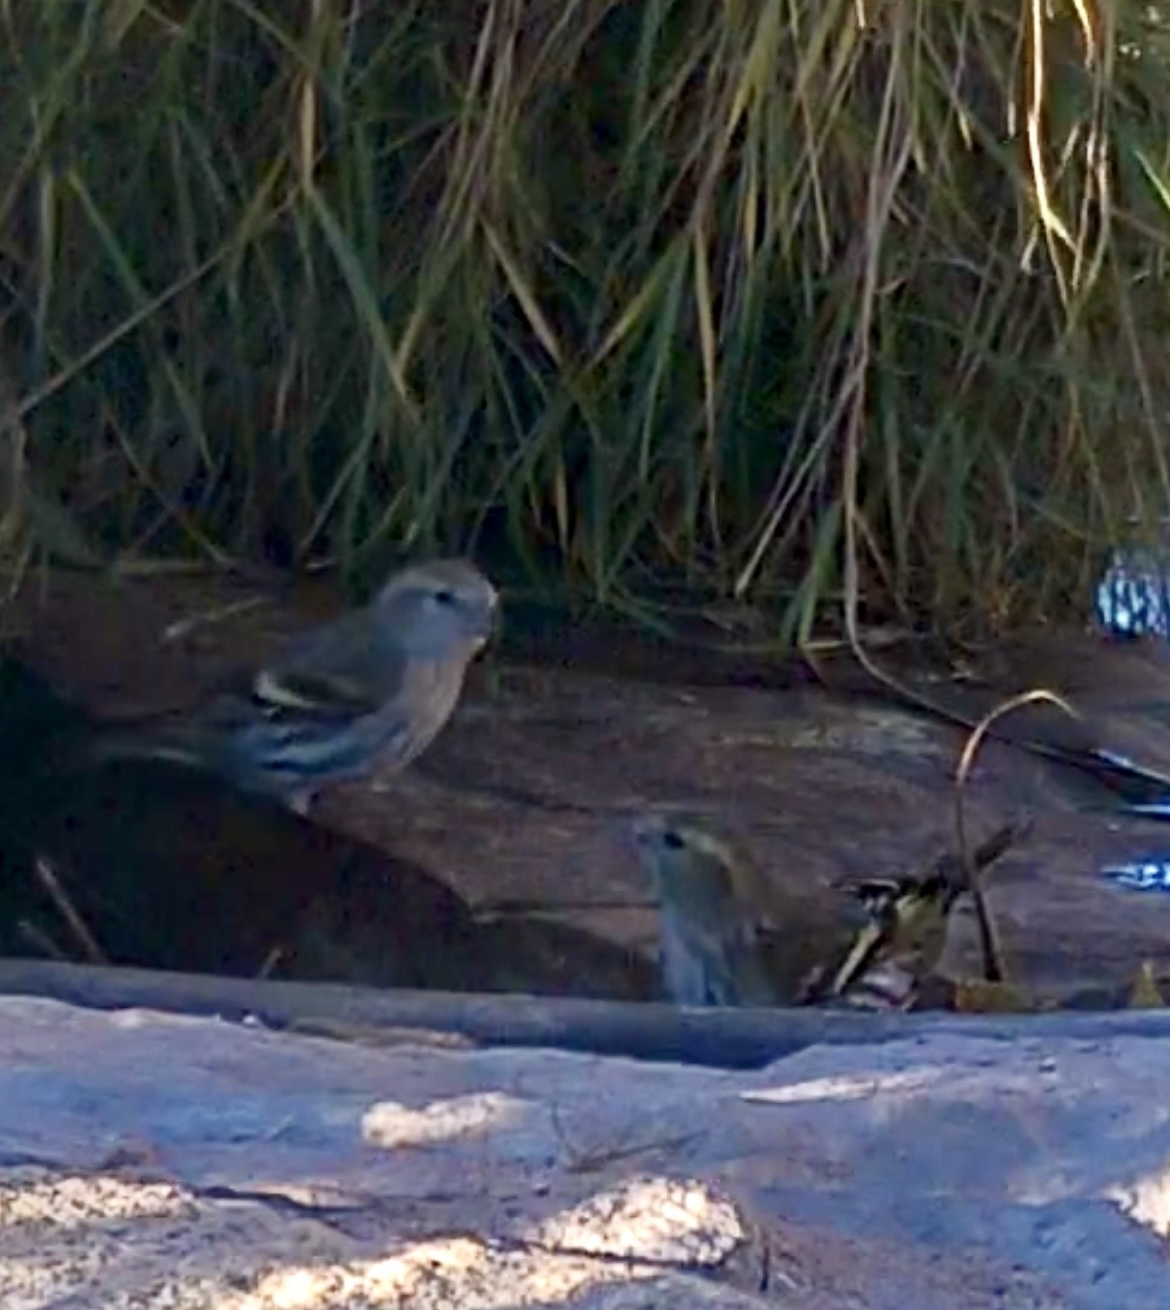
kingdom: Animalia
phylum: Chordata
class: Aves
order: Passeriformes
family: Fringillidae
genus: Spinus
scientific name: Spinus spinus
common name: Eurasian siskin
